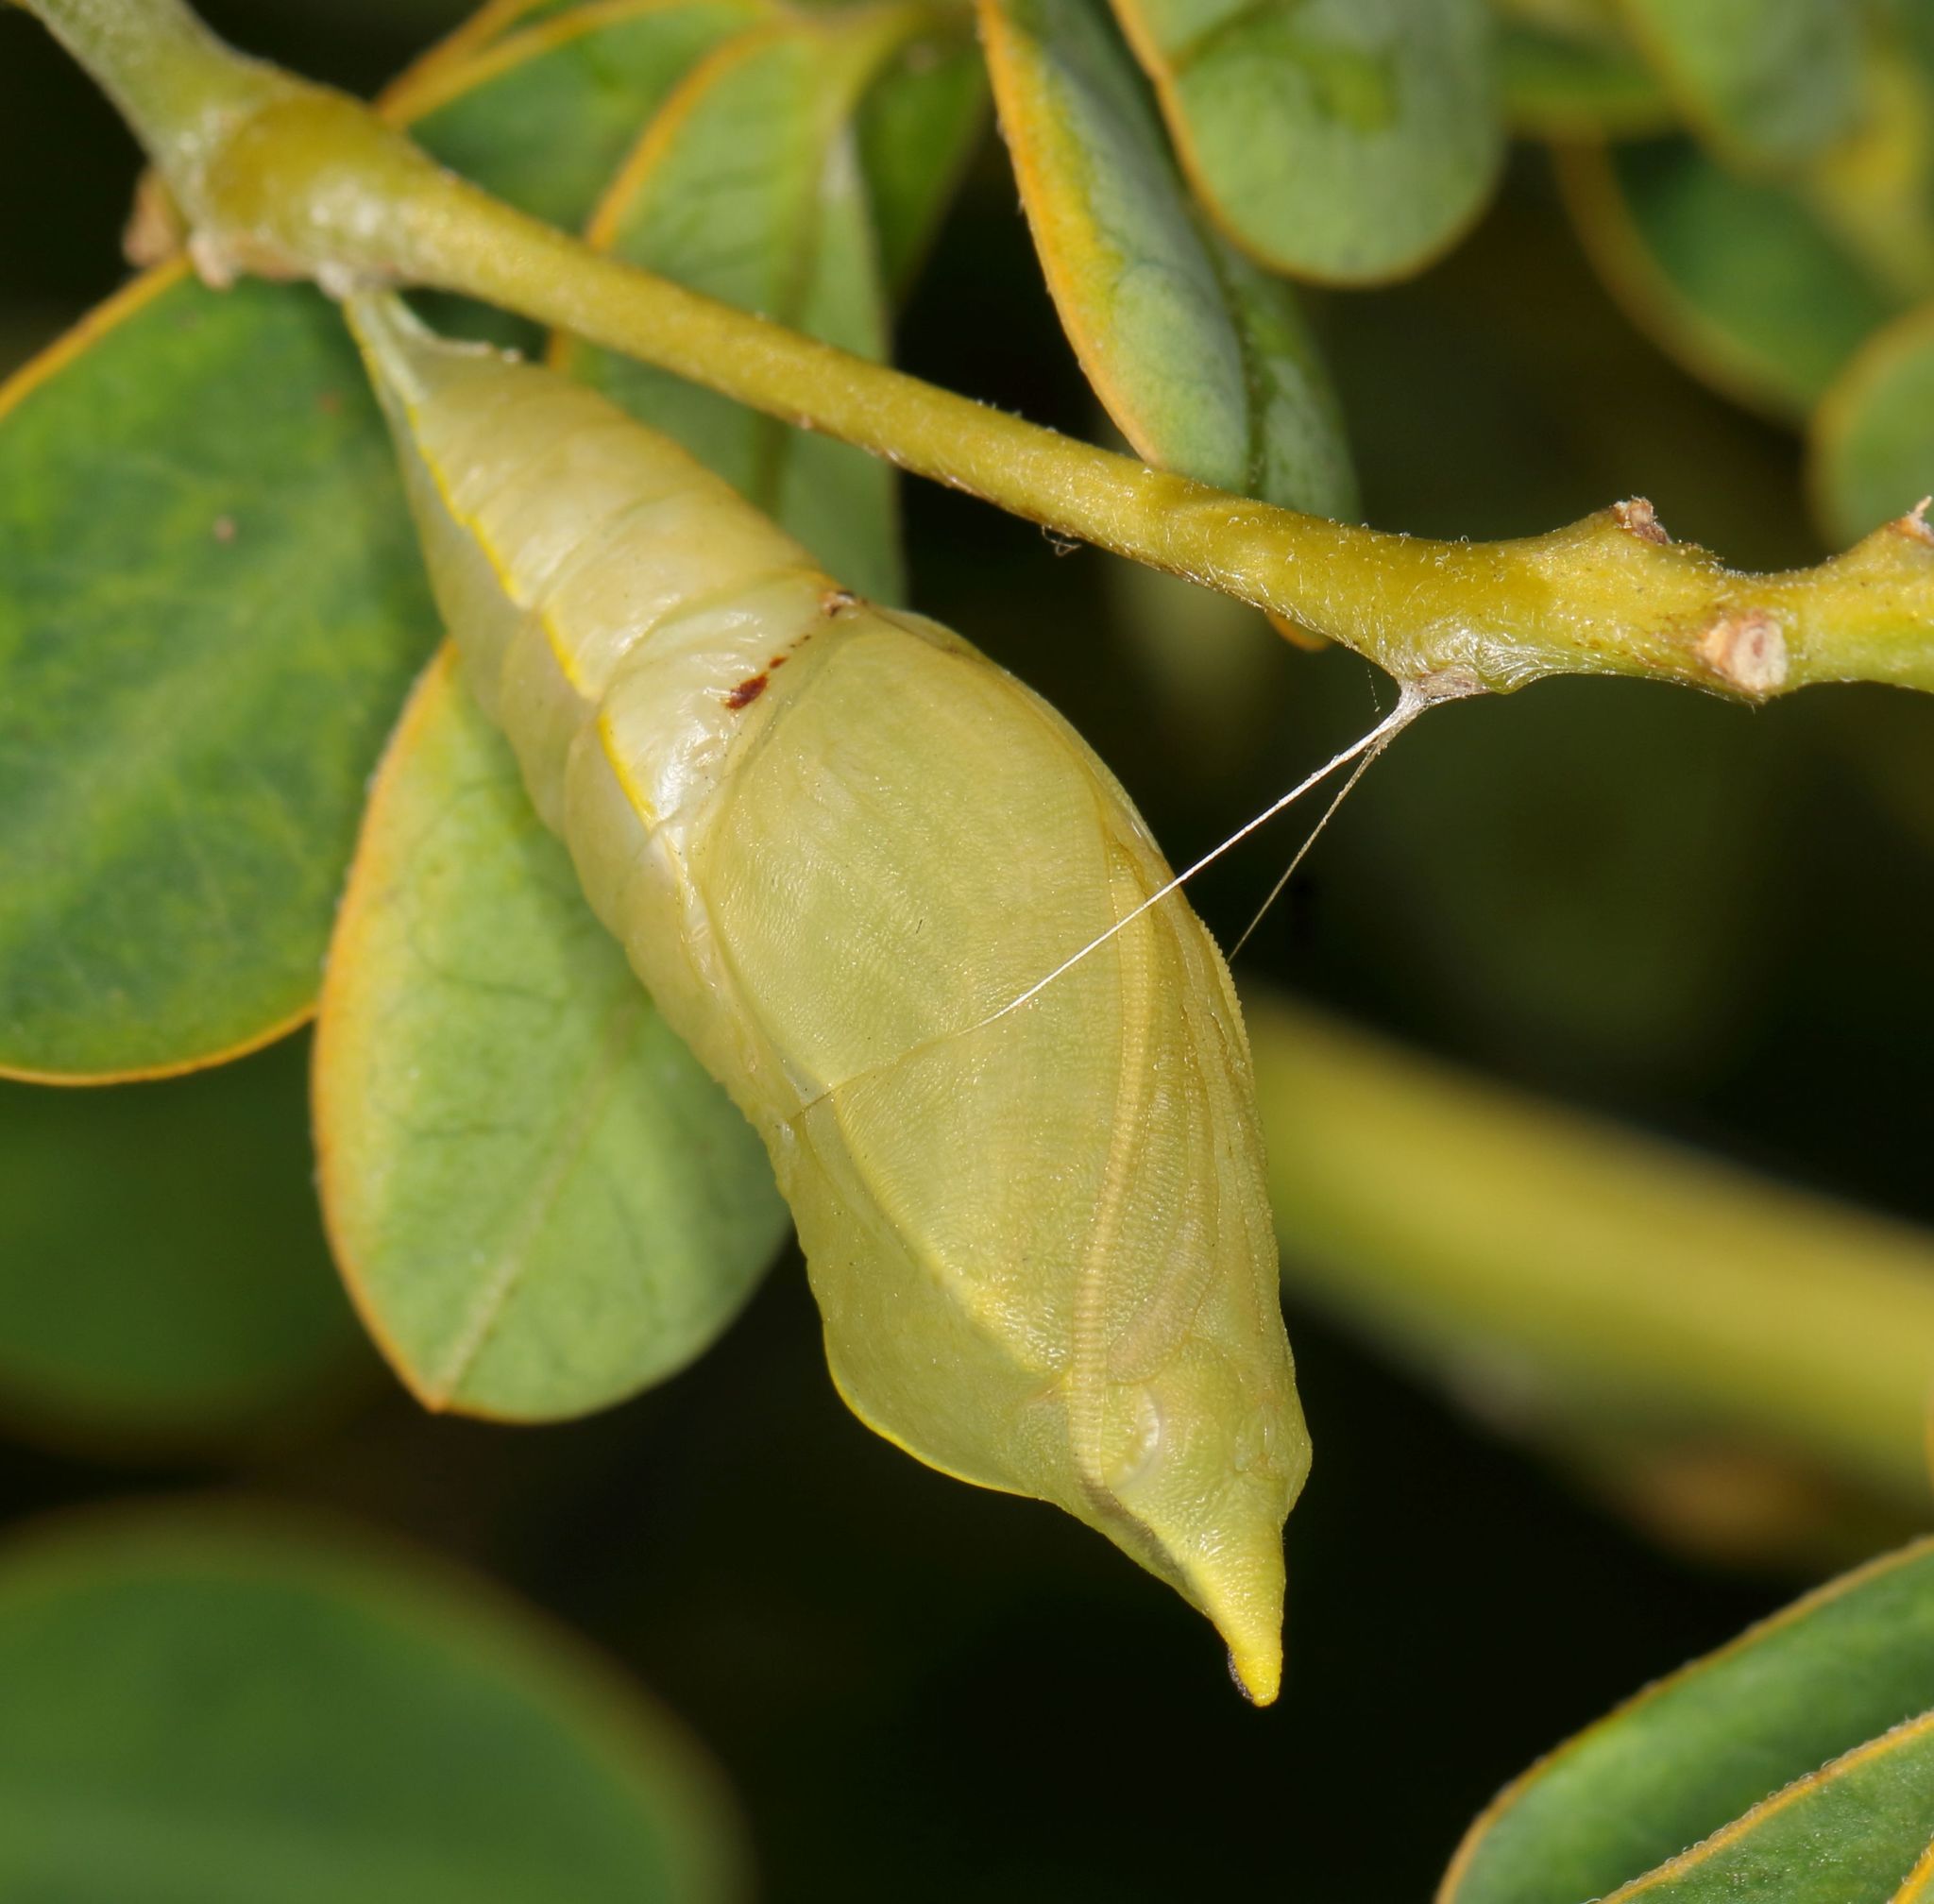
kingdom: Animalia
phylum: Arthropoda
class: Insecta
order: Lepidoptera
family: Pieridae
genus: Catopsilia
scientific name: Catopsilia florella
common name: African migrant
